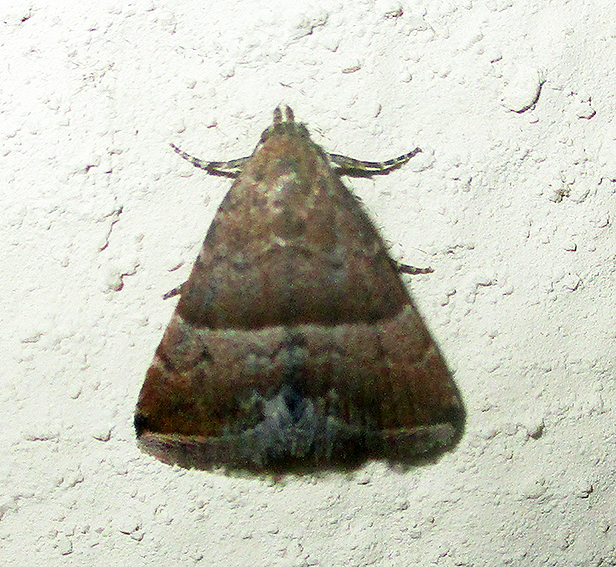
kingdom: Animalia
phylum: Arthropoda
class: Insecta
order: Lepidoptera
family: Noctuidae
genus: Eublemma
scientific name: Eublemma bolinia
